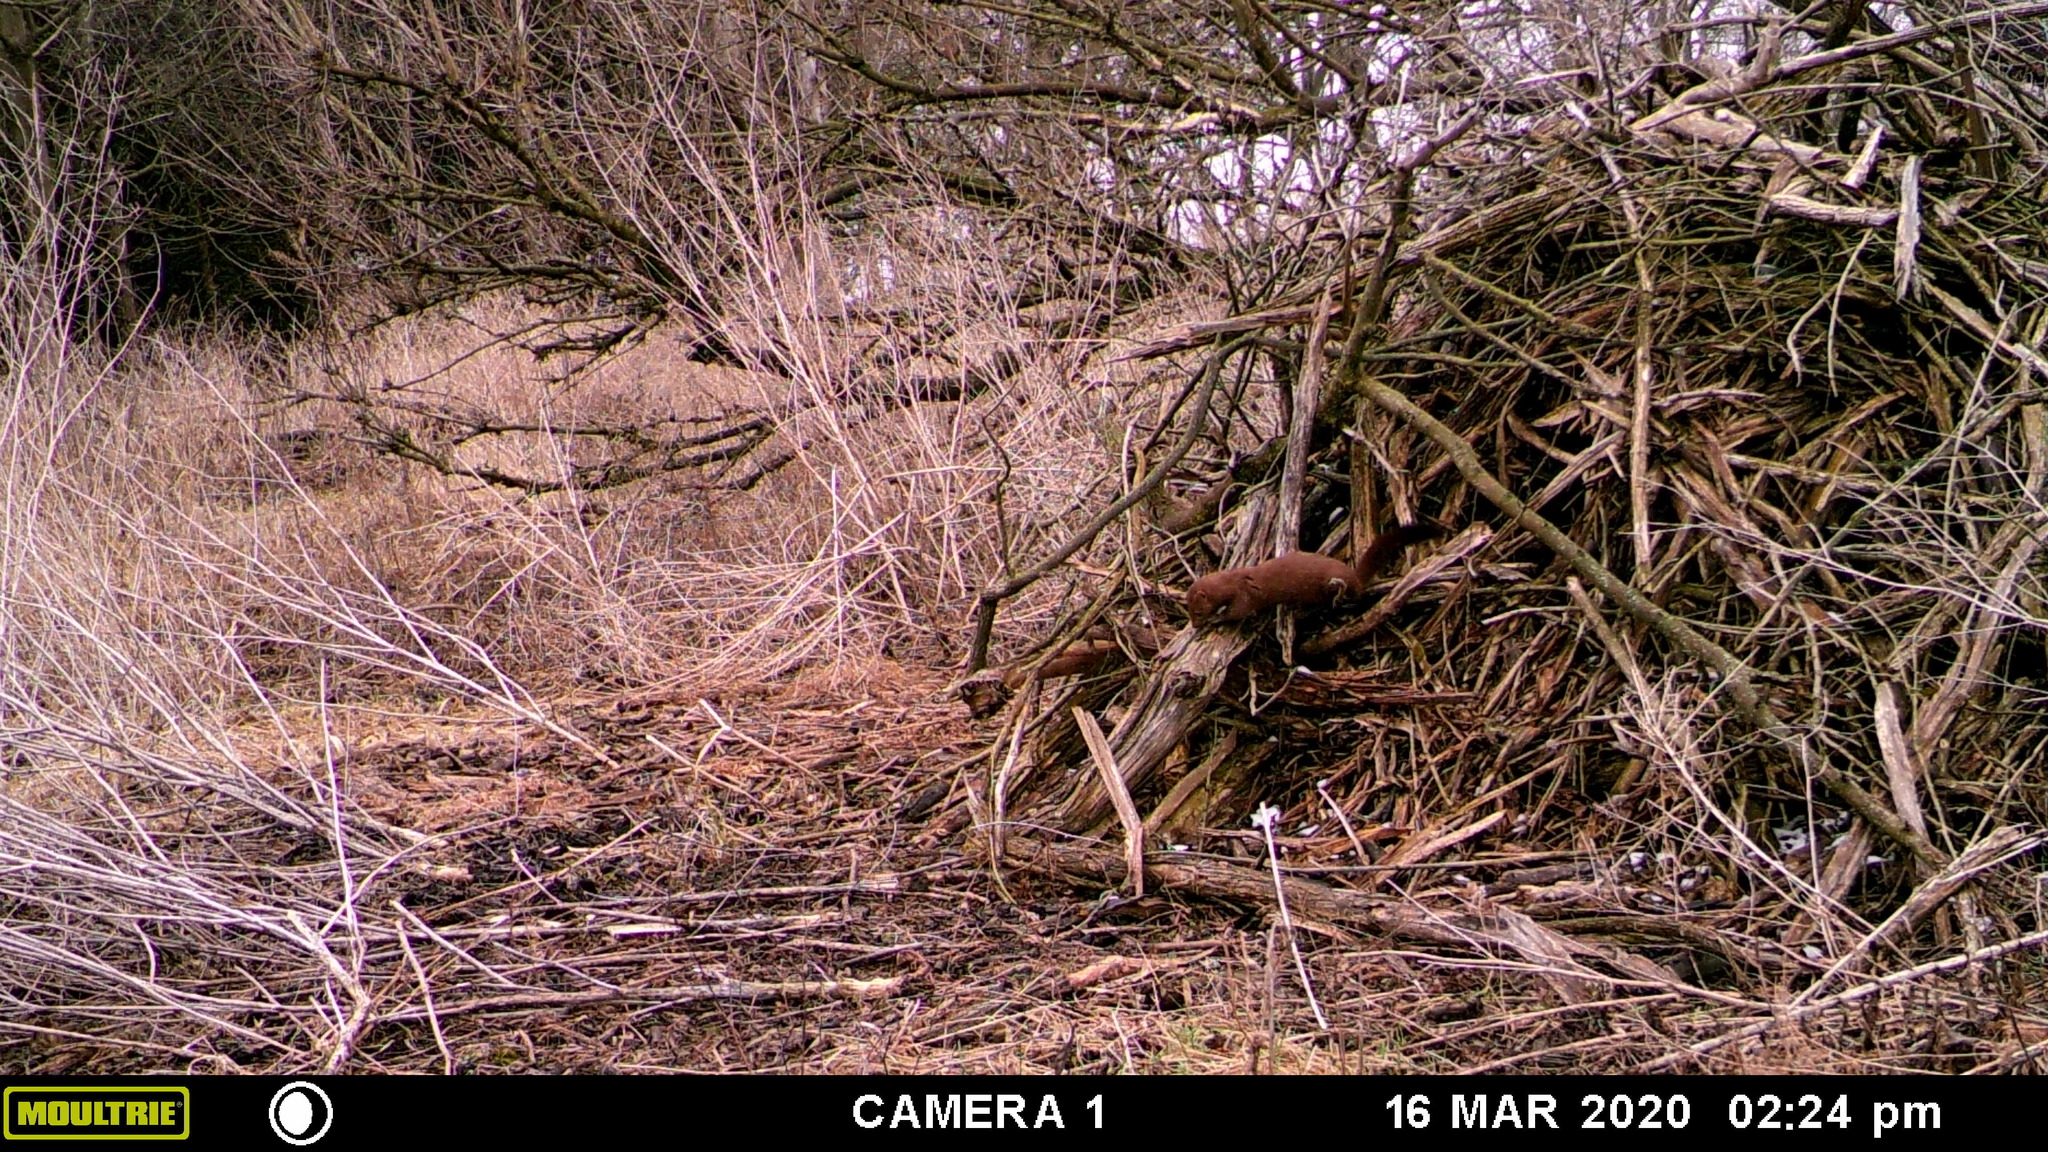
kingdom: Animalia
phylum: Chordata
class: Mammalia
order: Carnivora
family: Mustelidae
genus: Mustela
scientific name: Mustela
